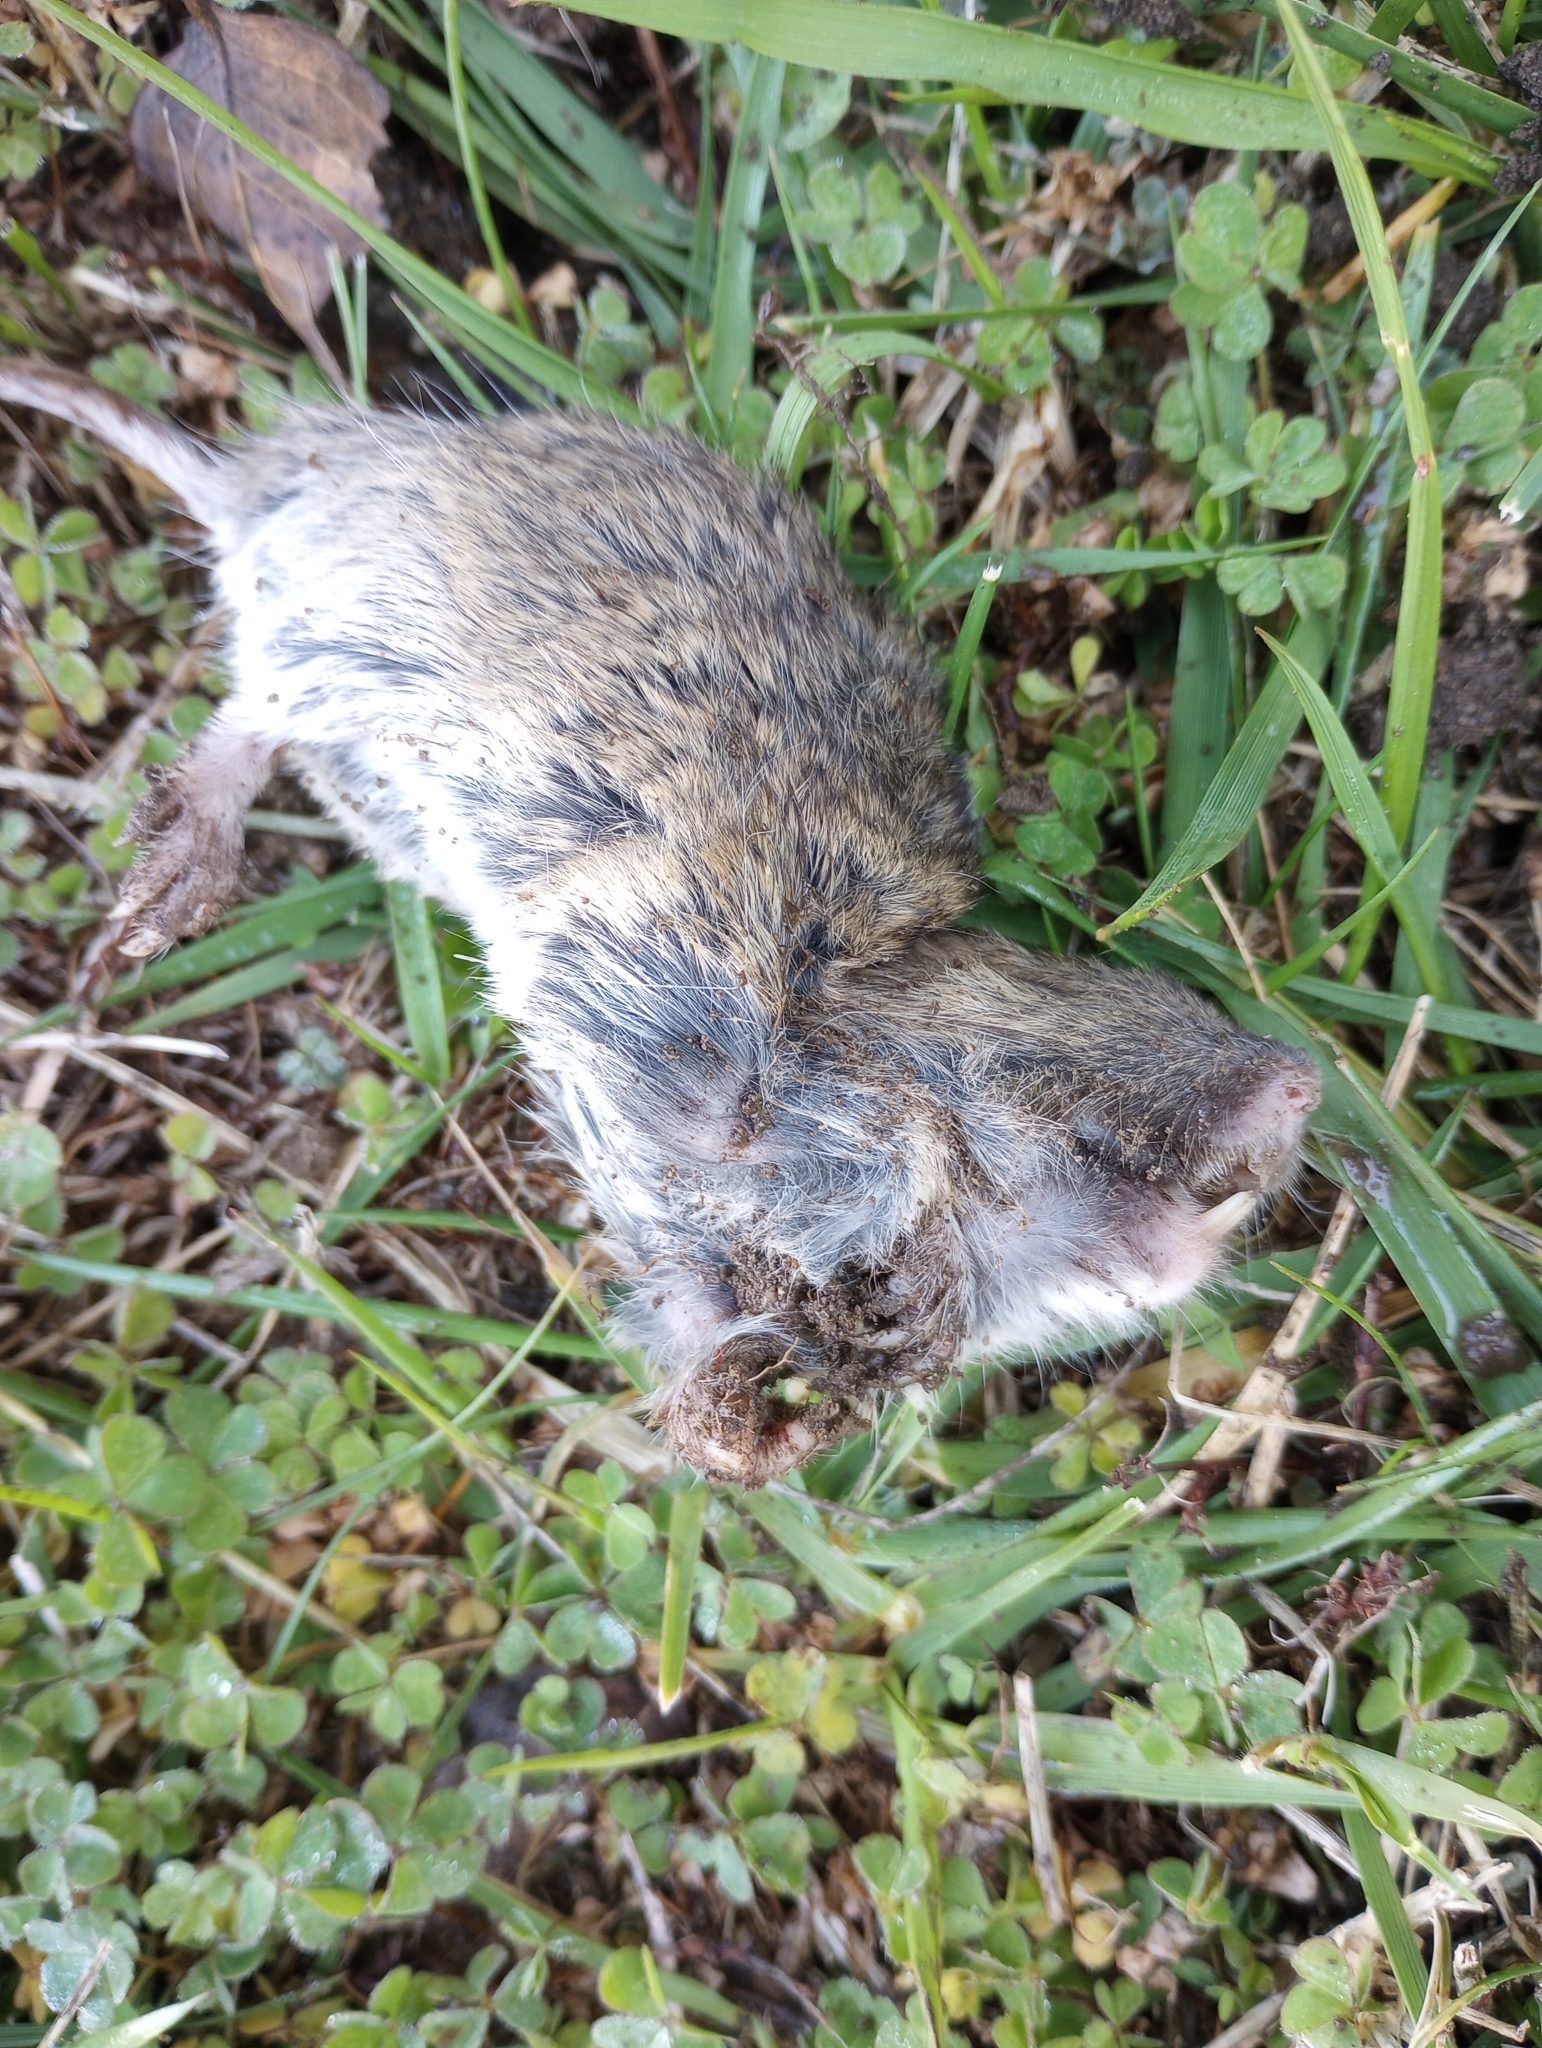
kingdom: Animalia
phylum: Chordata
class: Mammalia
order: Rodentia
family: Geomyidae
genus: Thomomys
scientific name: Thomomys bottae
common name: Botta's pocket gopher
